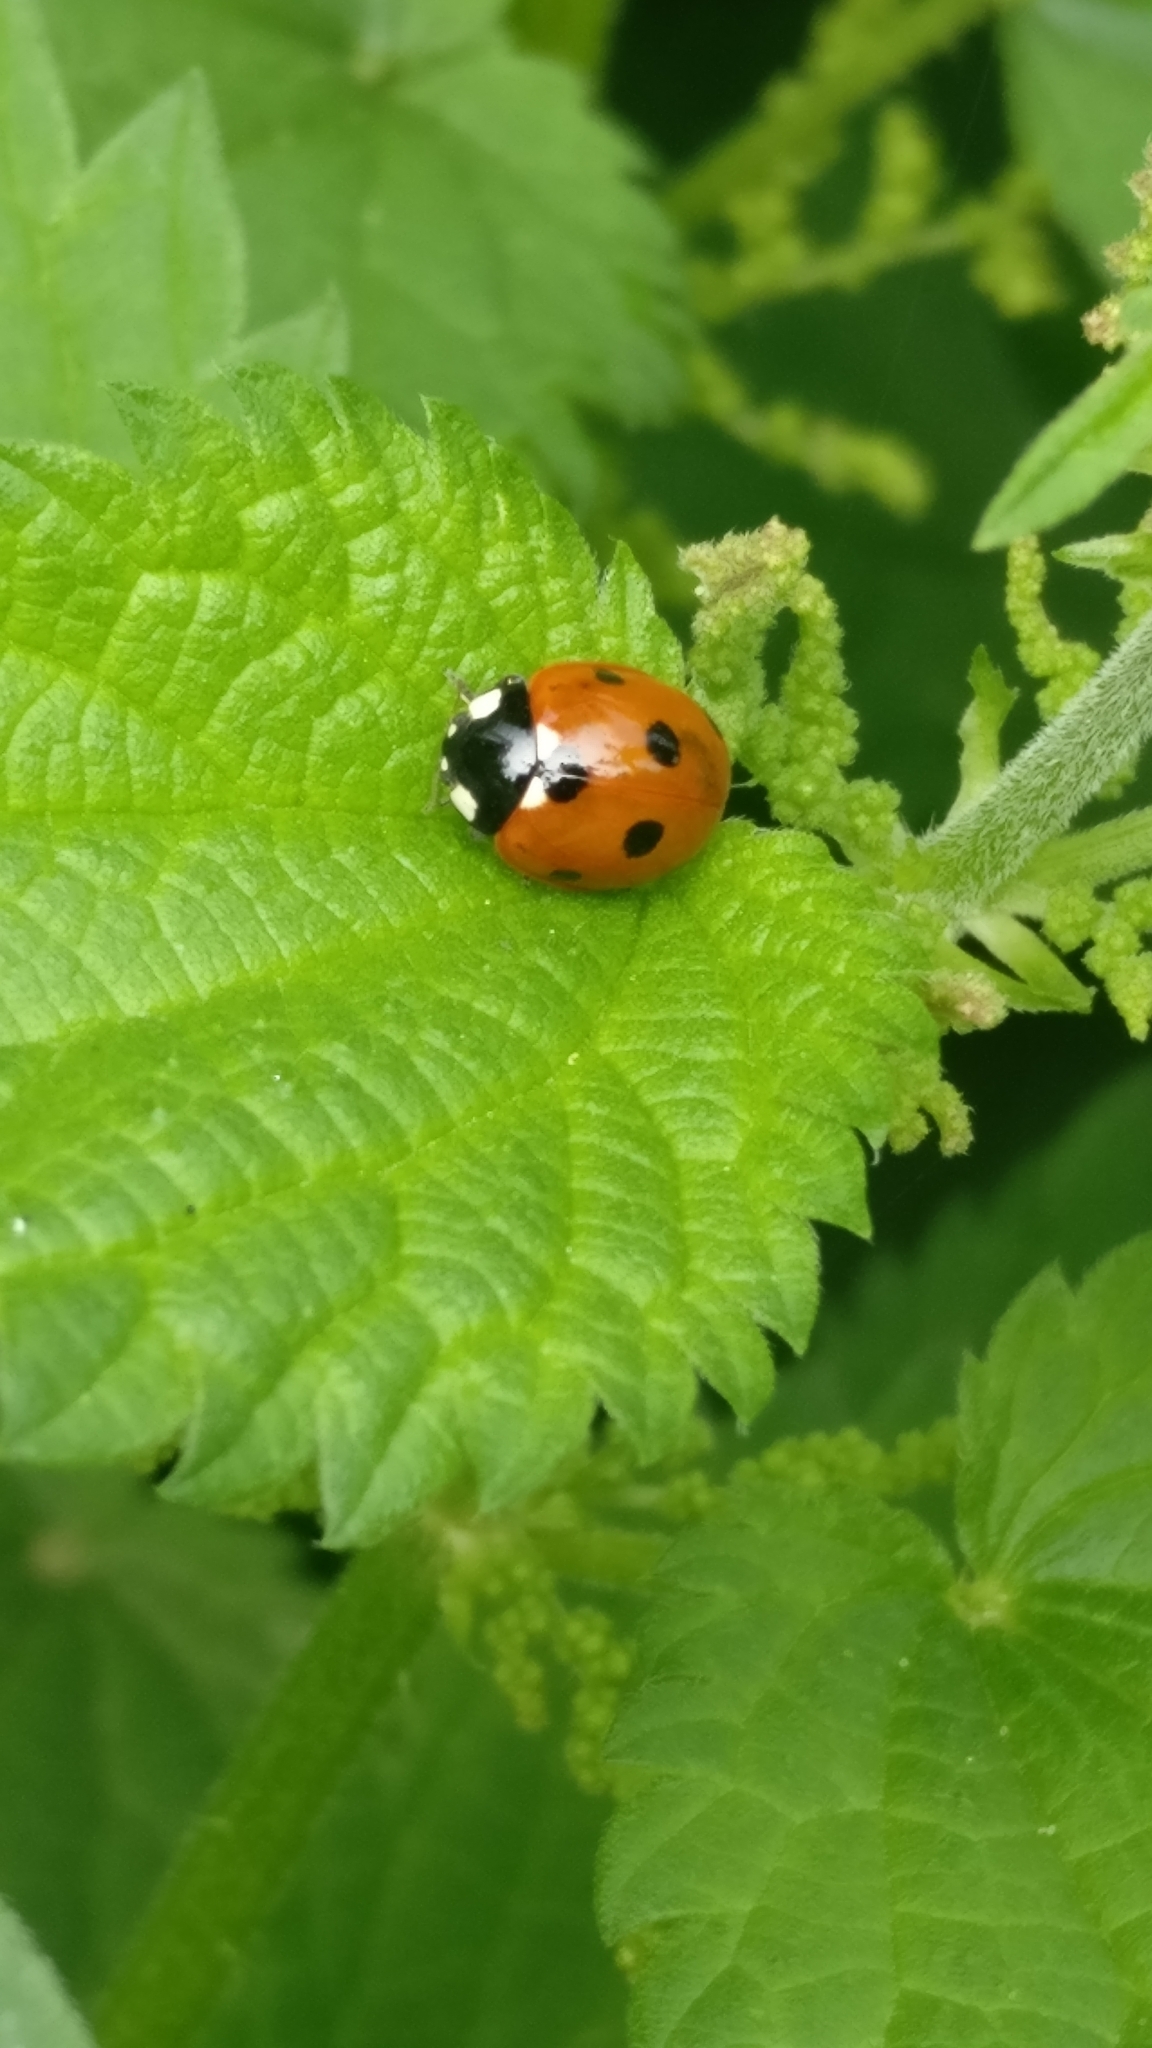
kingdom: Animalia
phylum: Arthropoda
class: Insecta
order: Coleoptera
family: Coccinellidae
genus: Coccinella
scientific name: Coccinella septempunctata
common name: Sevenspotted lady beetle
